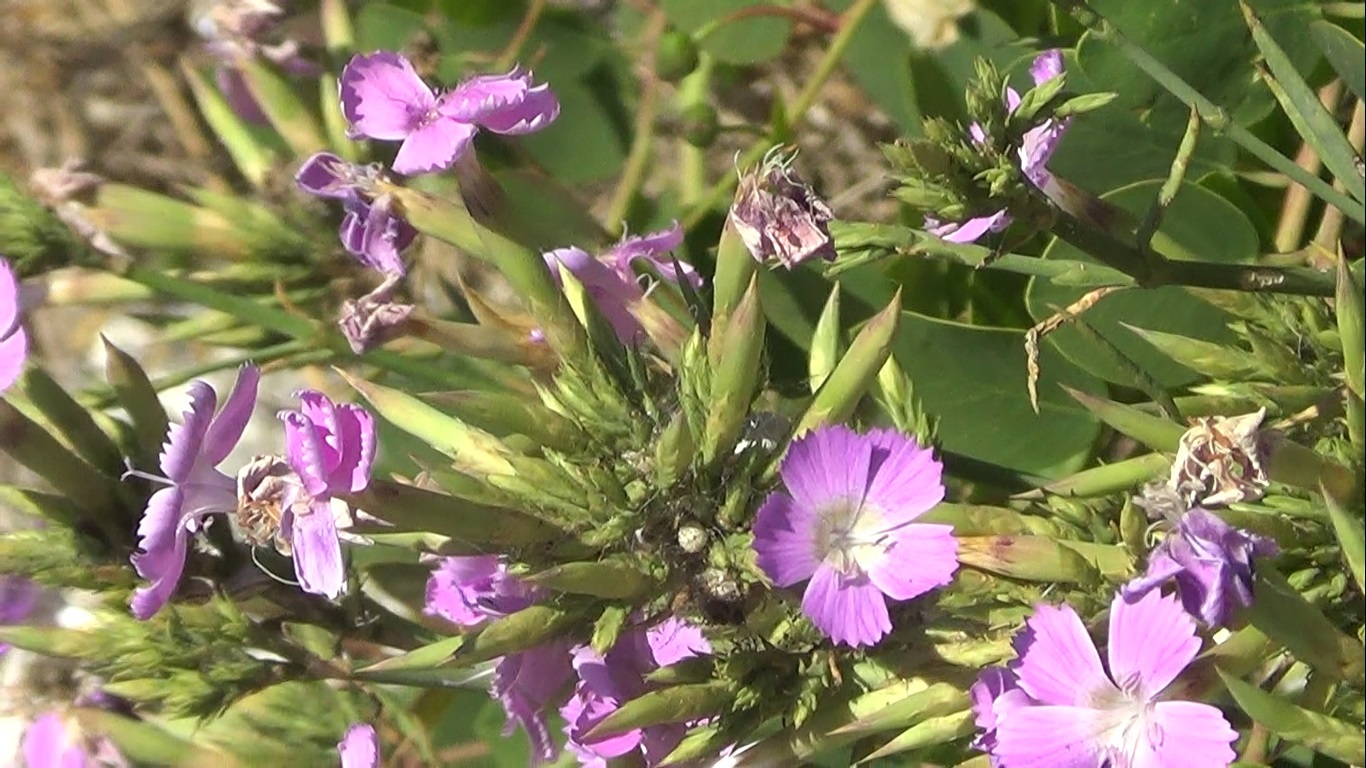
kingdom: Plantae
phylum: Tracheophyta
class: Magnoliopsida
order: Caryophyllales
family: Caryophyllaceae
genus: Dianthus
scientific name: Dianthus rupicola
